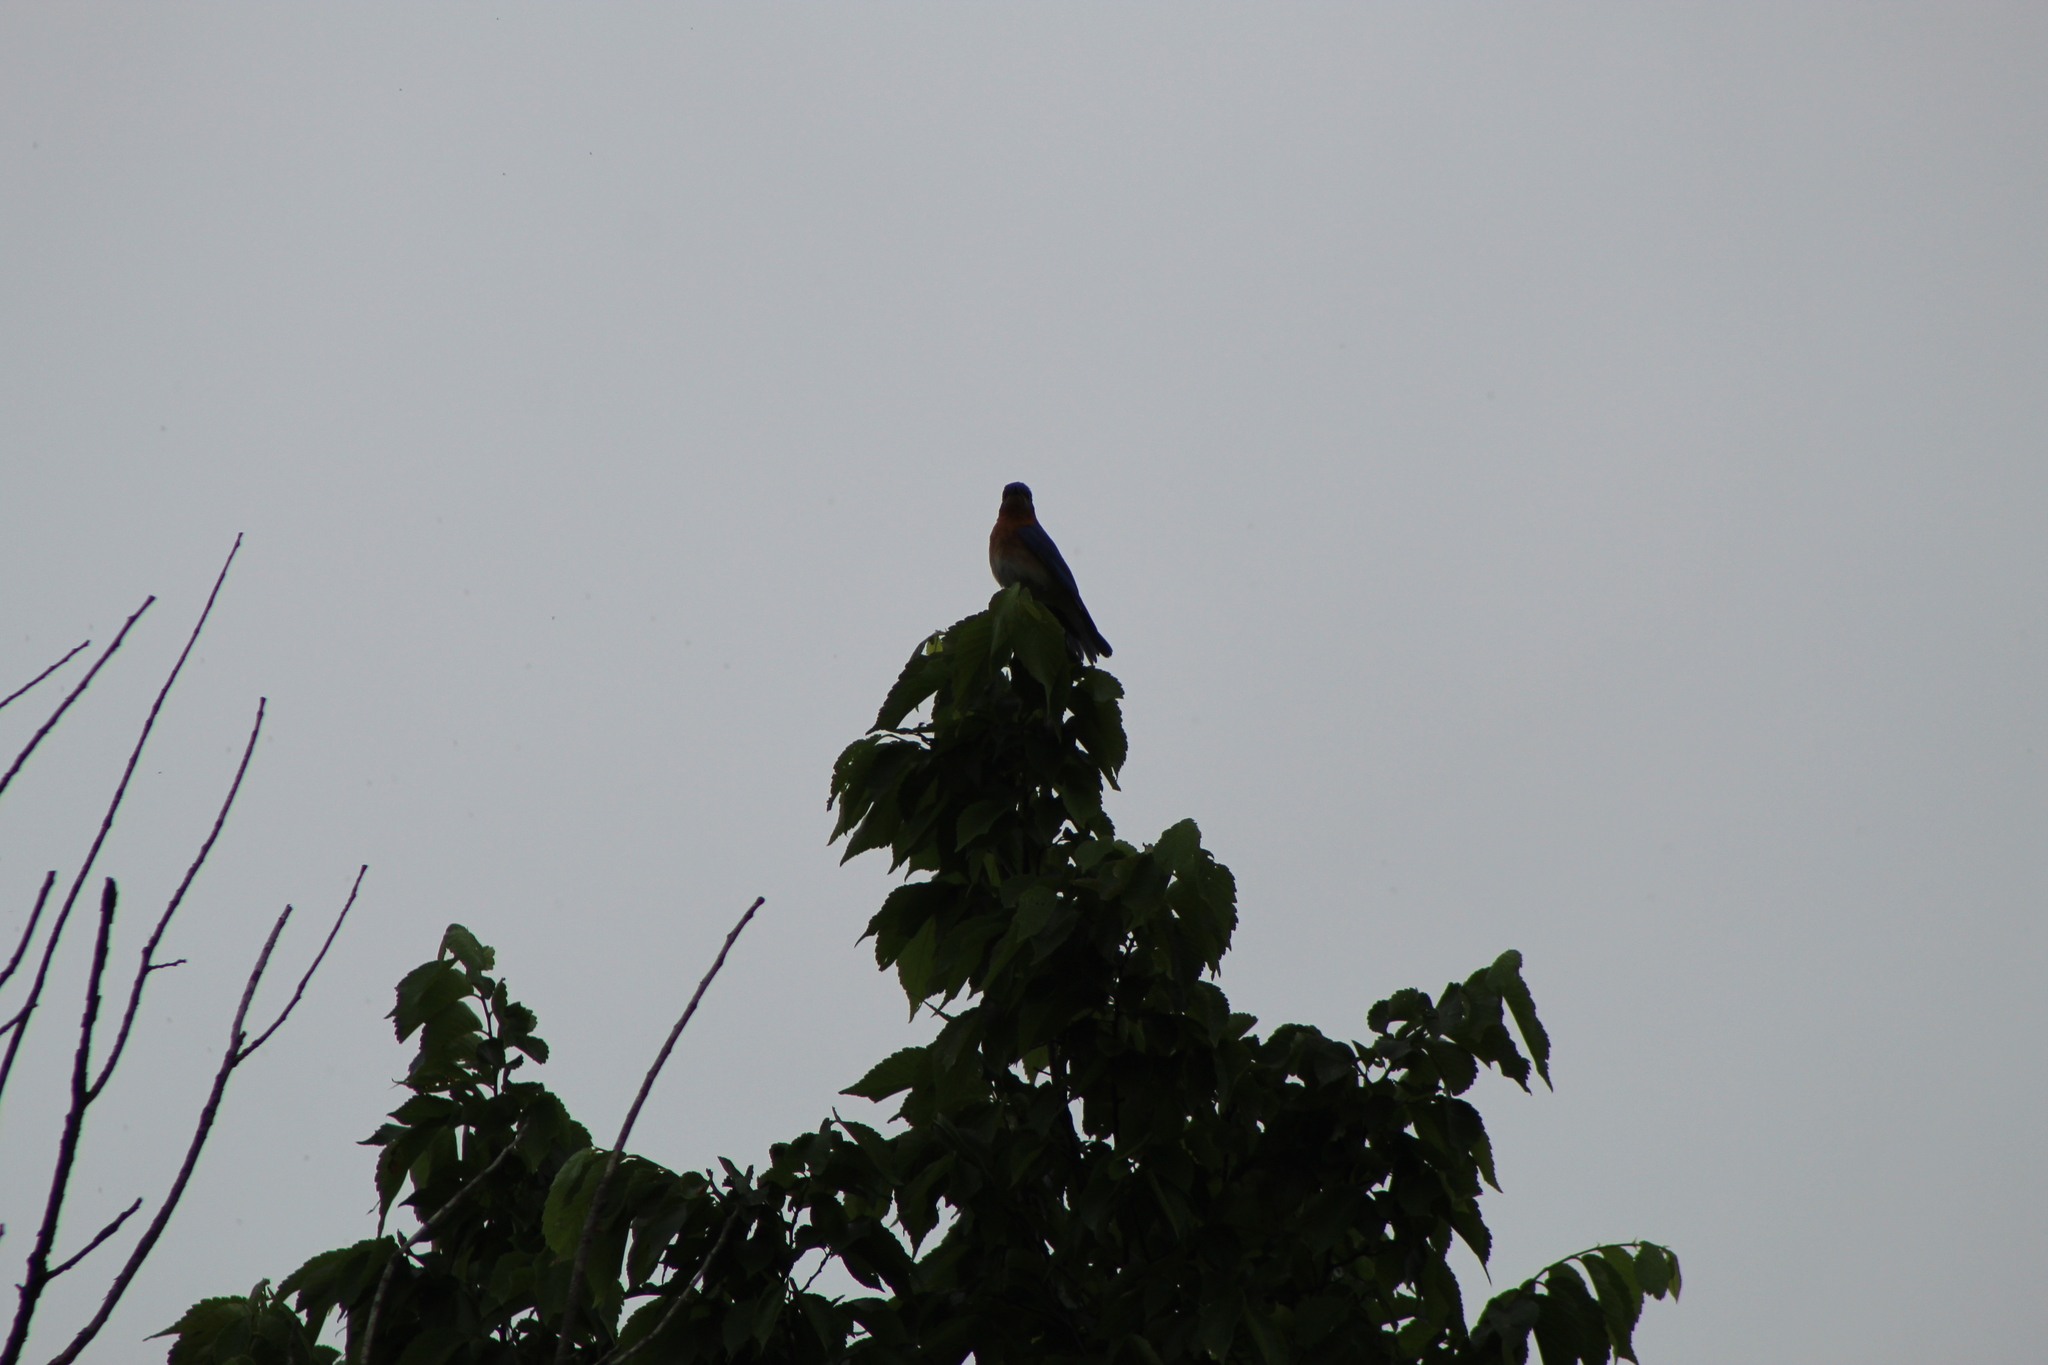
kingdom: Animalia
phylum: Chordata
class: Aves
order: Passeriformes
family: Turdidae
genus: Sialia
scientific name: Sialia sialis
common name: Eastern bluebird
